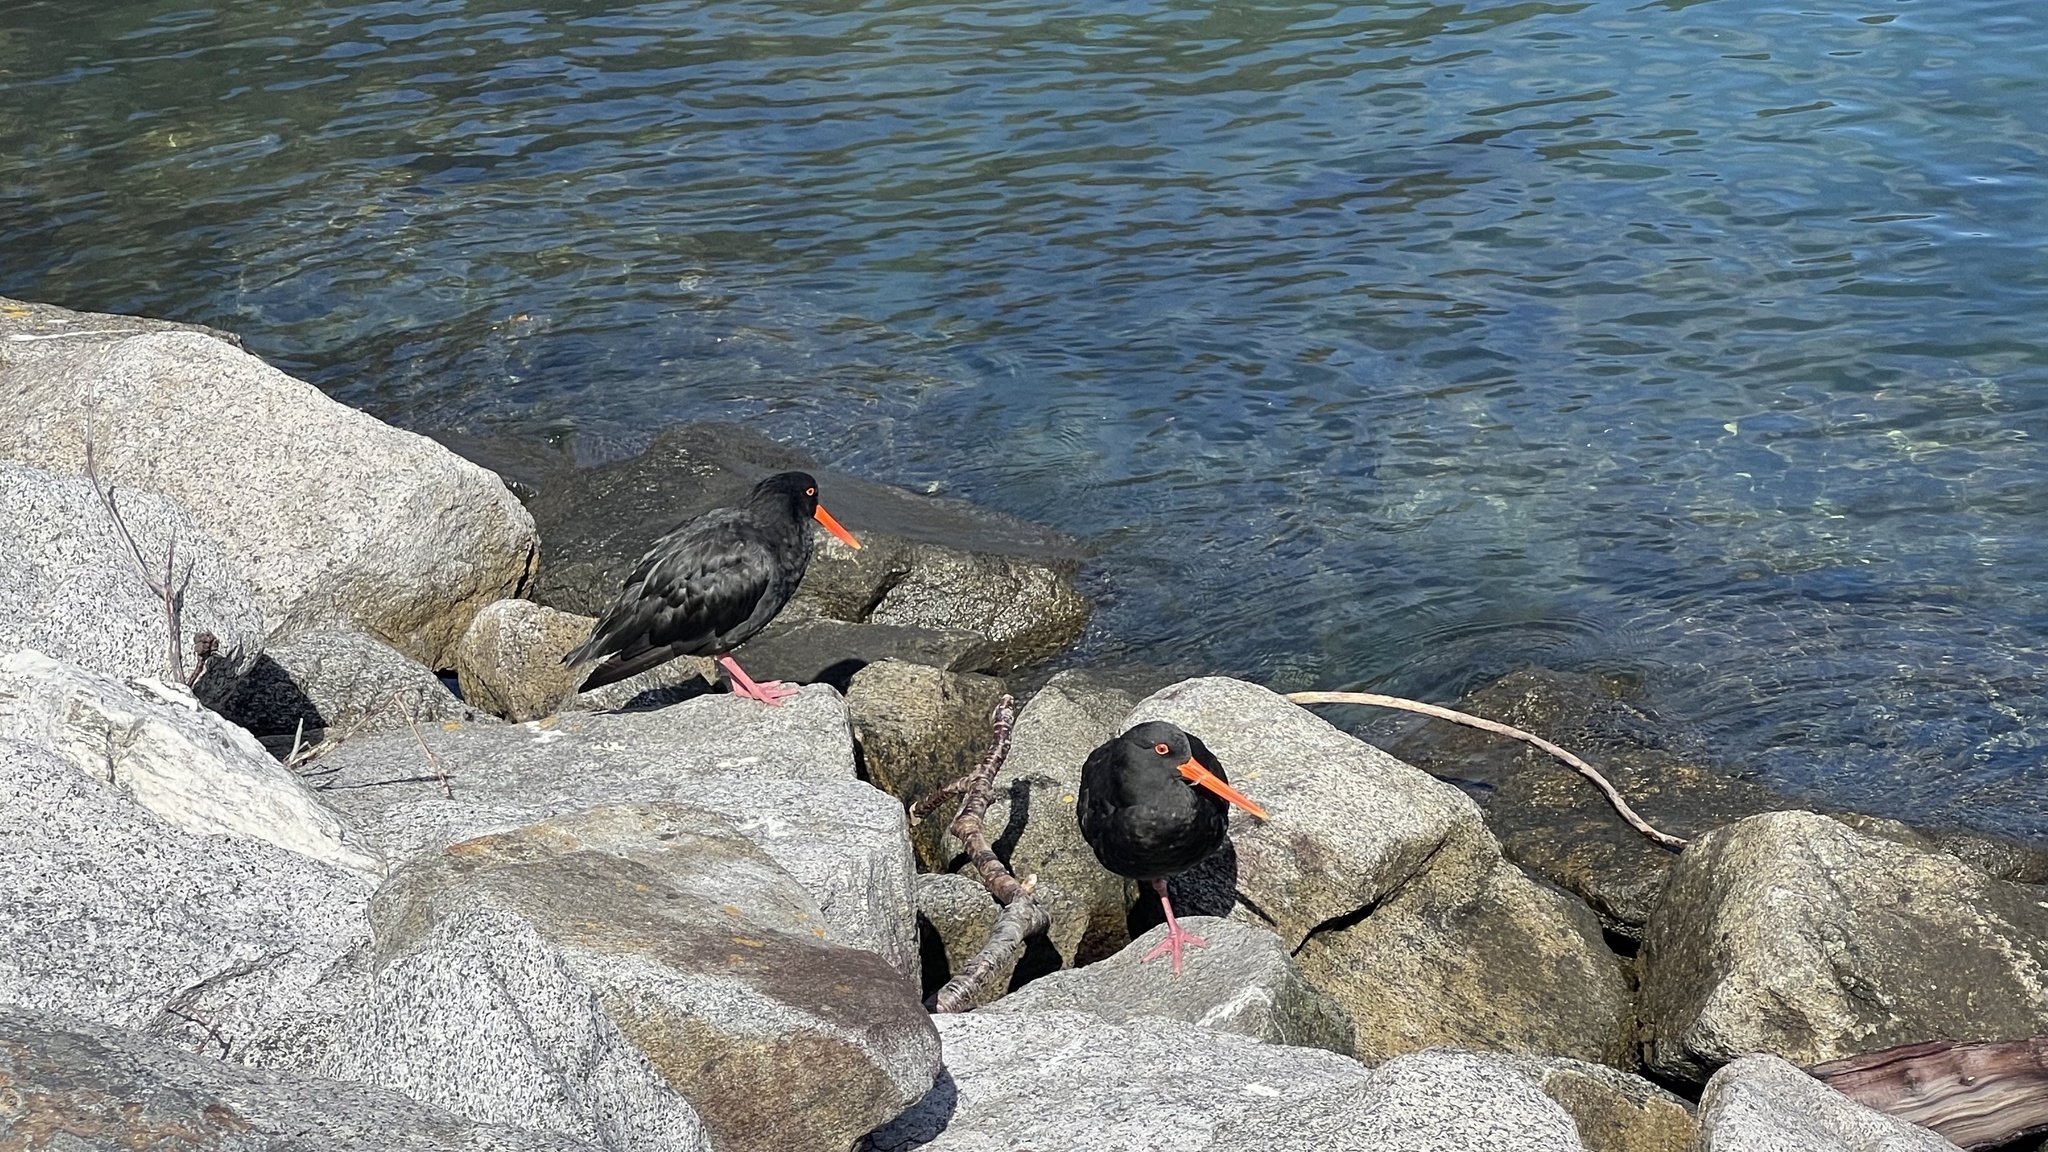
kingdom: Animalia
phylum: Chordata
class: Aves
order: Charadriiformes
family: Haematopodidae
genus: Haematopus
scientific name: Haematopus unicolor
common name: Variable oystercatcher
